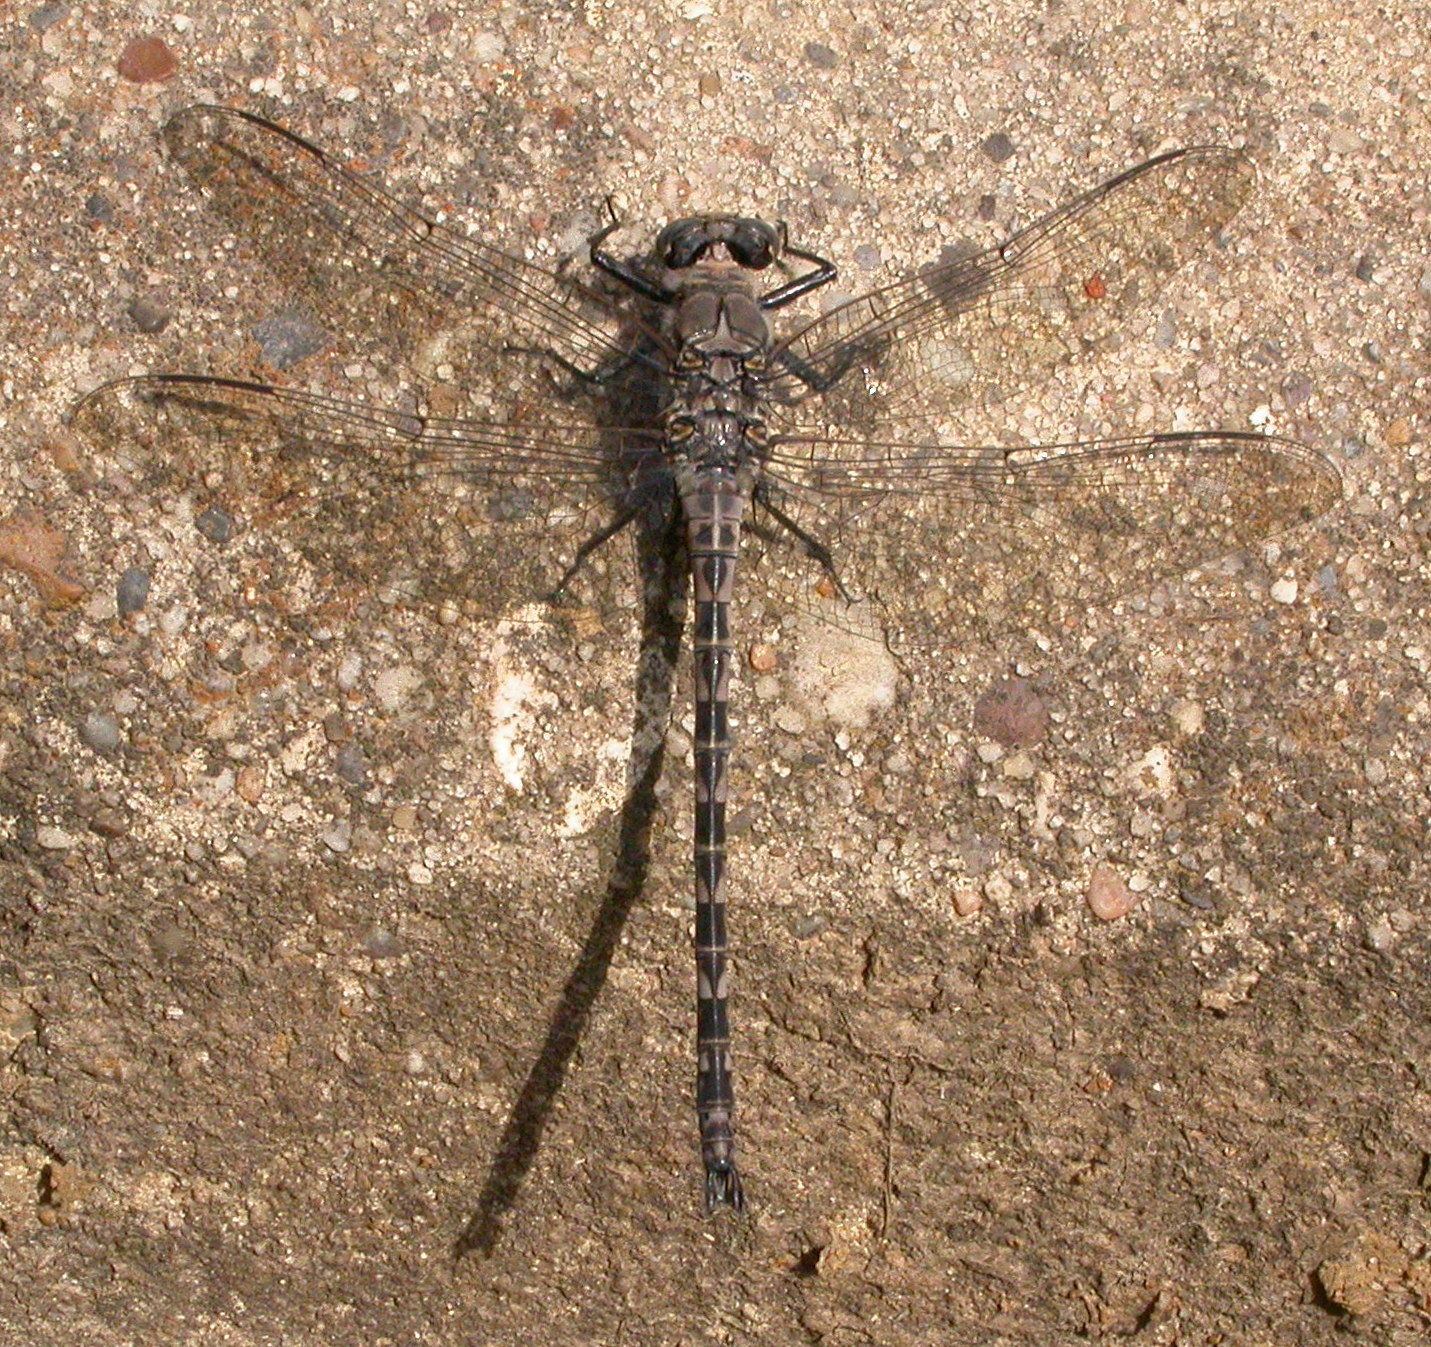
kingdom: Animalia
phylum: Arthropoda
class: Insecta
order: Odonata
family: Petaluridae
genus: Tachopteryx
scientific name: Tachopteryx thoreyi
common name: Gray petaltail
